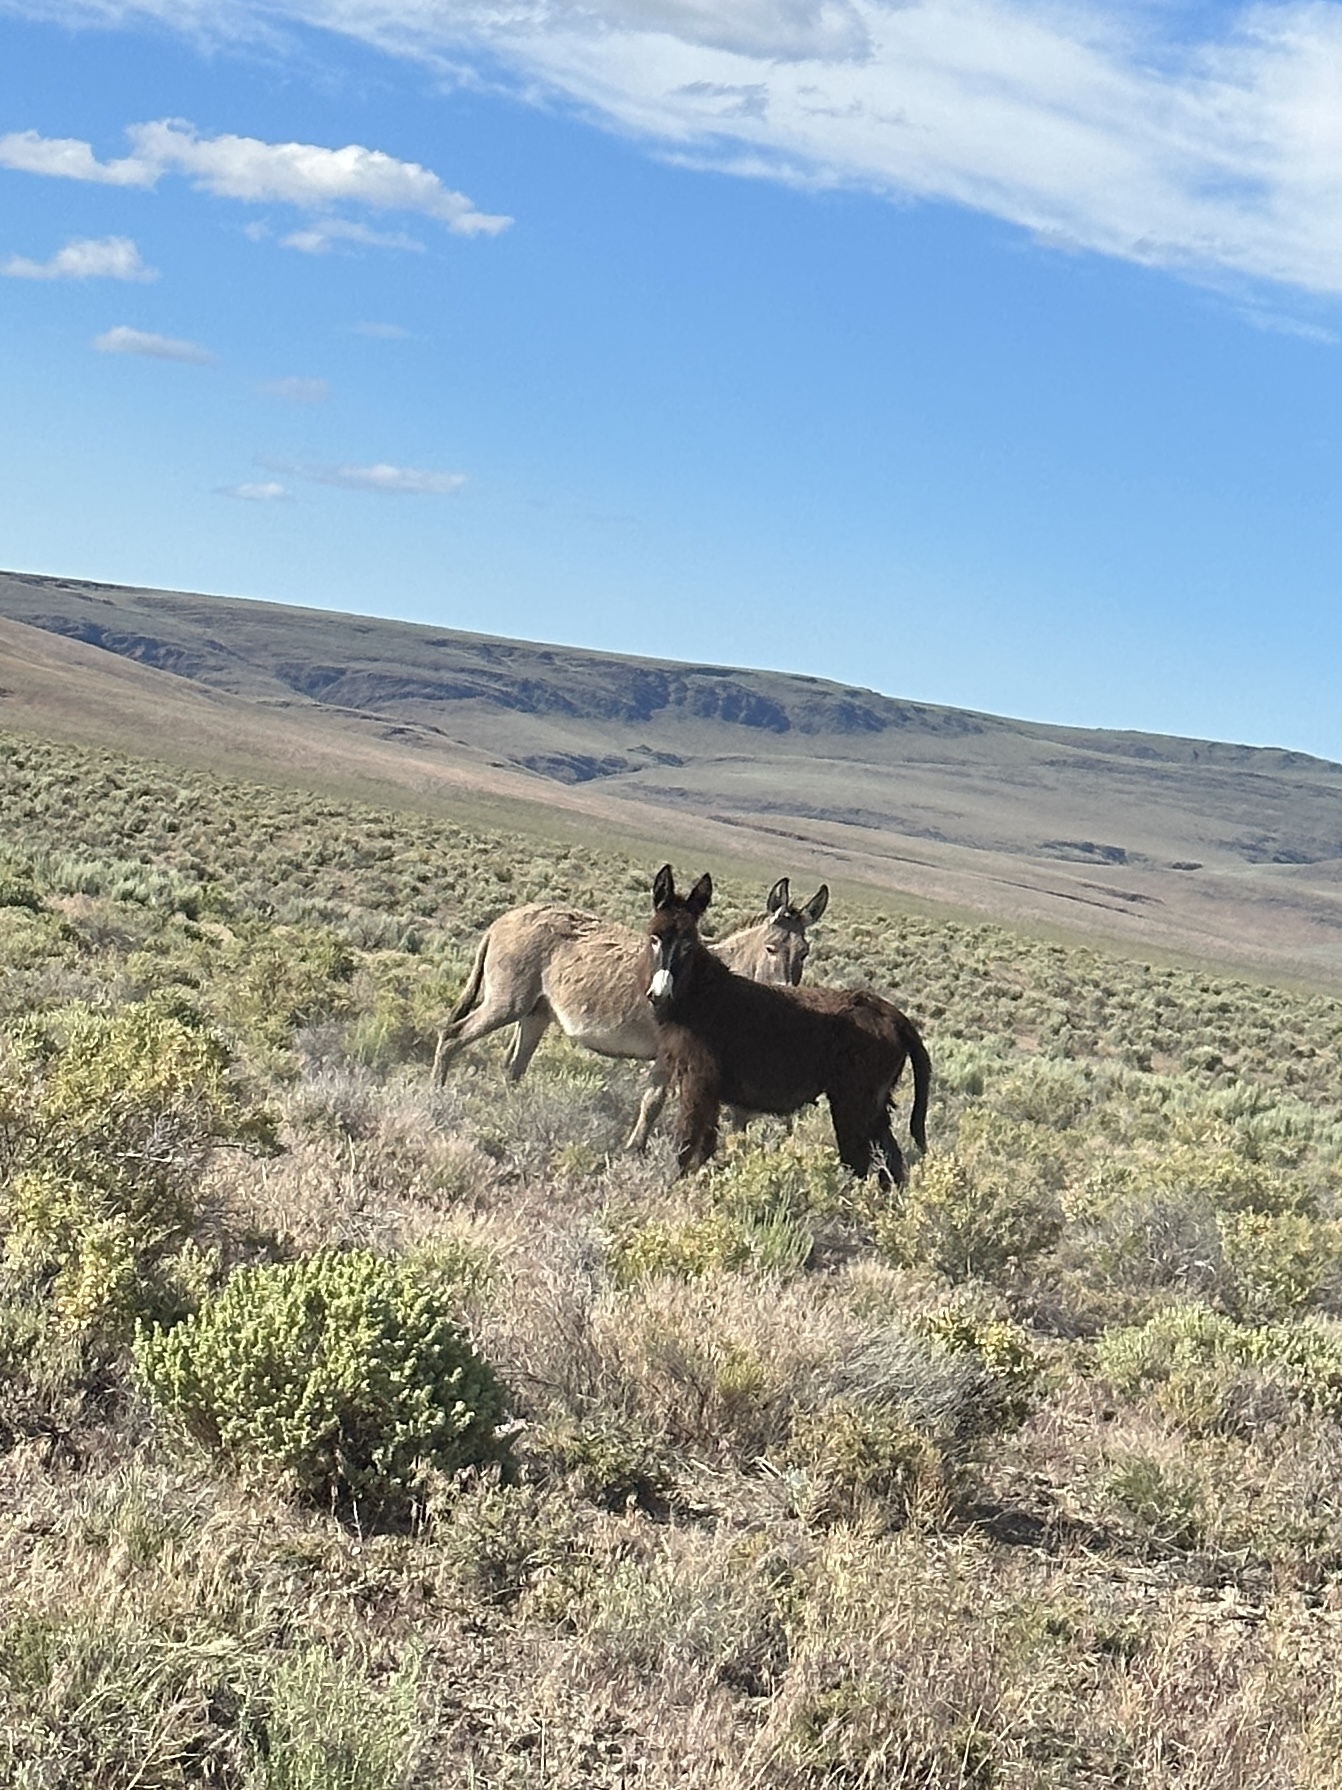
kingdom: Animalia
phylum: Chordata
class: Mammalia
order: Perissodactyla
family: Equidae
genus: Equus
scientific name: Equus asinus
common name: Ass
